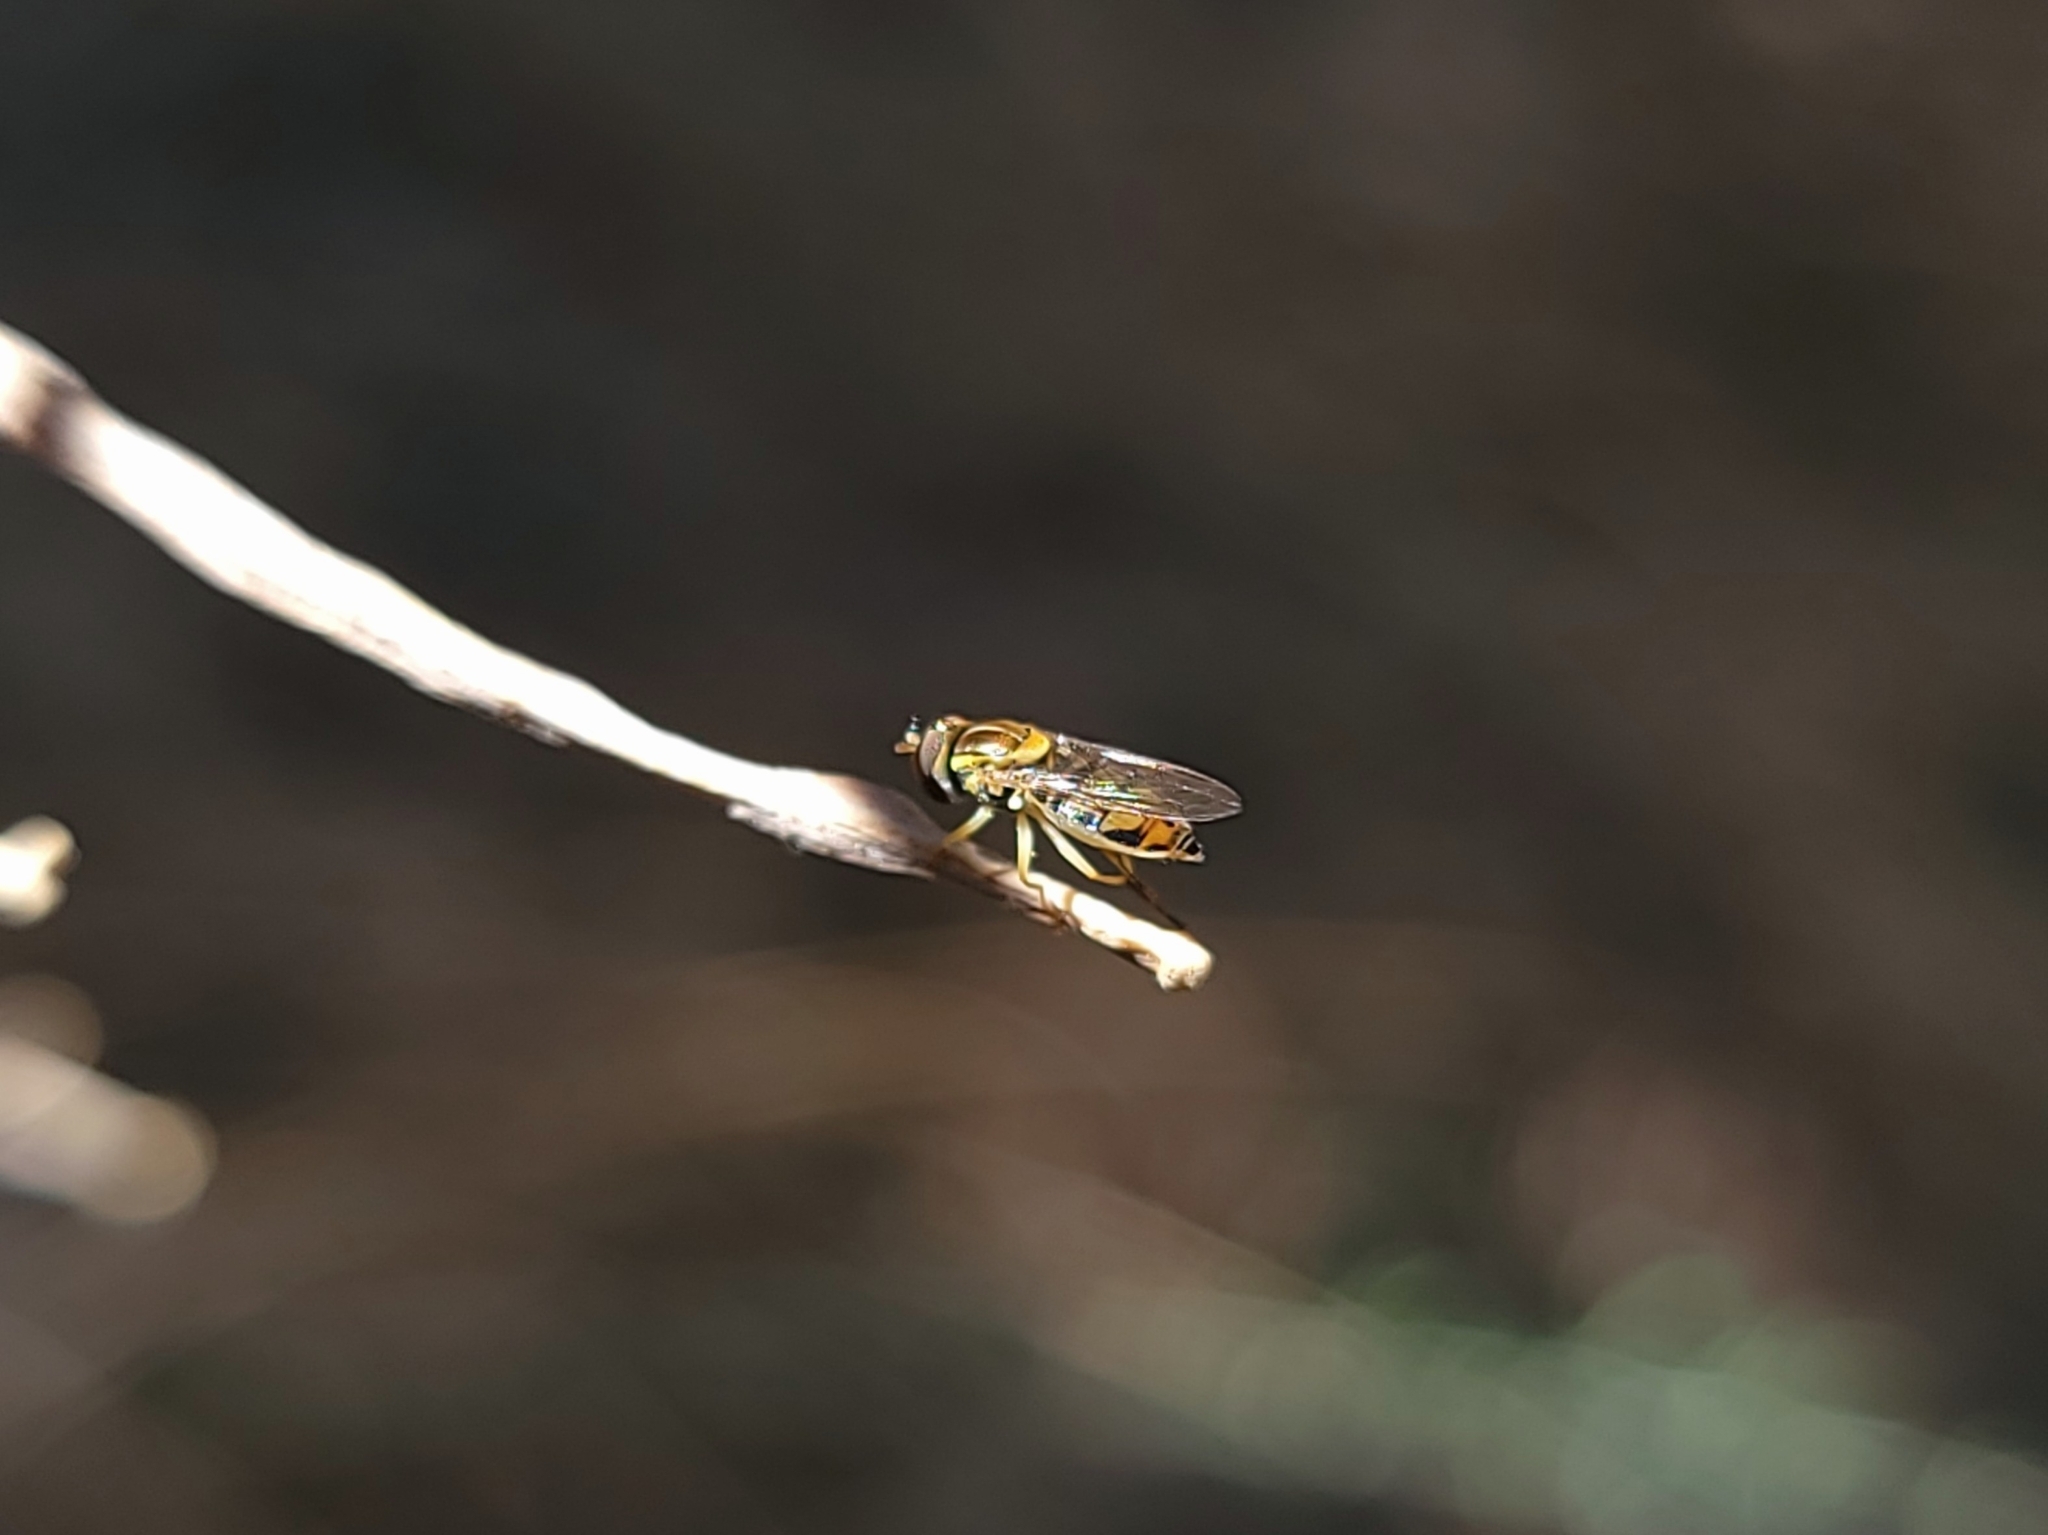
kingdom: Animalia
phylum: Arthropoda
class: Insecta
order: Diptera
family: Syrphidae
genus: Toxomerus
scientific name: Toxomerus marginatus
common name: Syrphid fly
